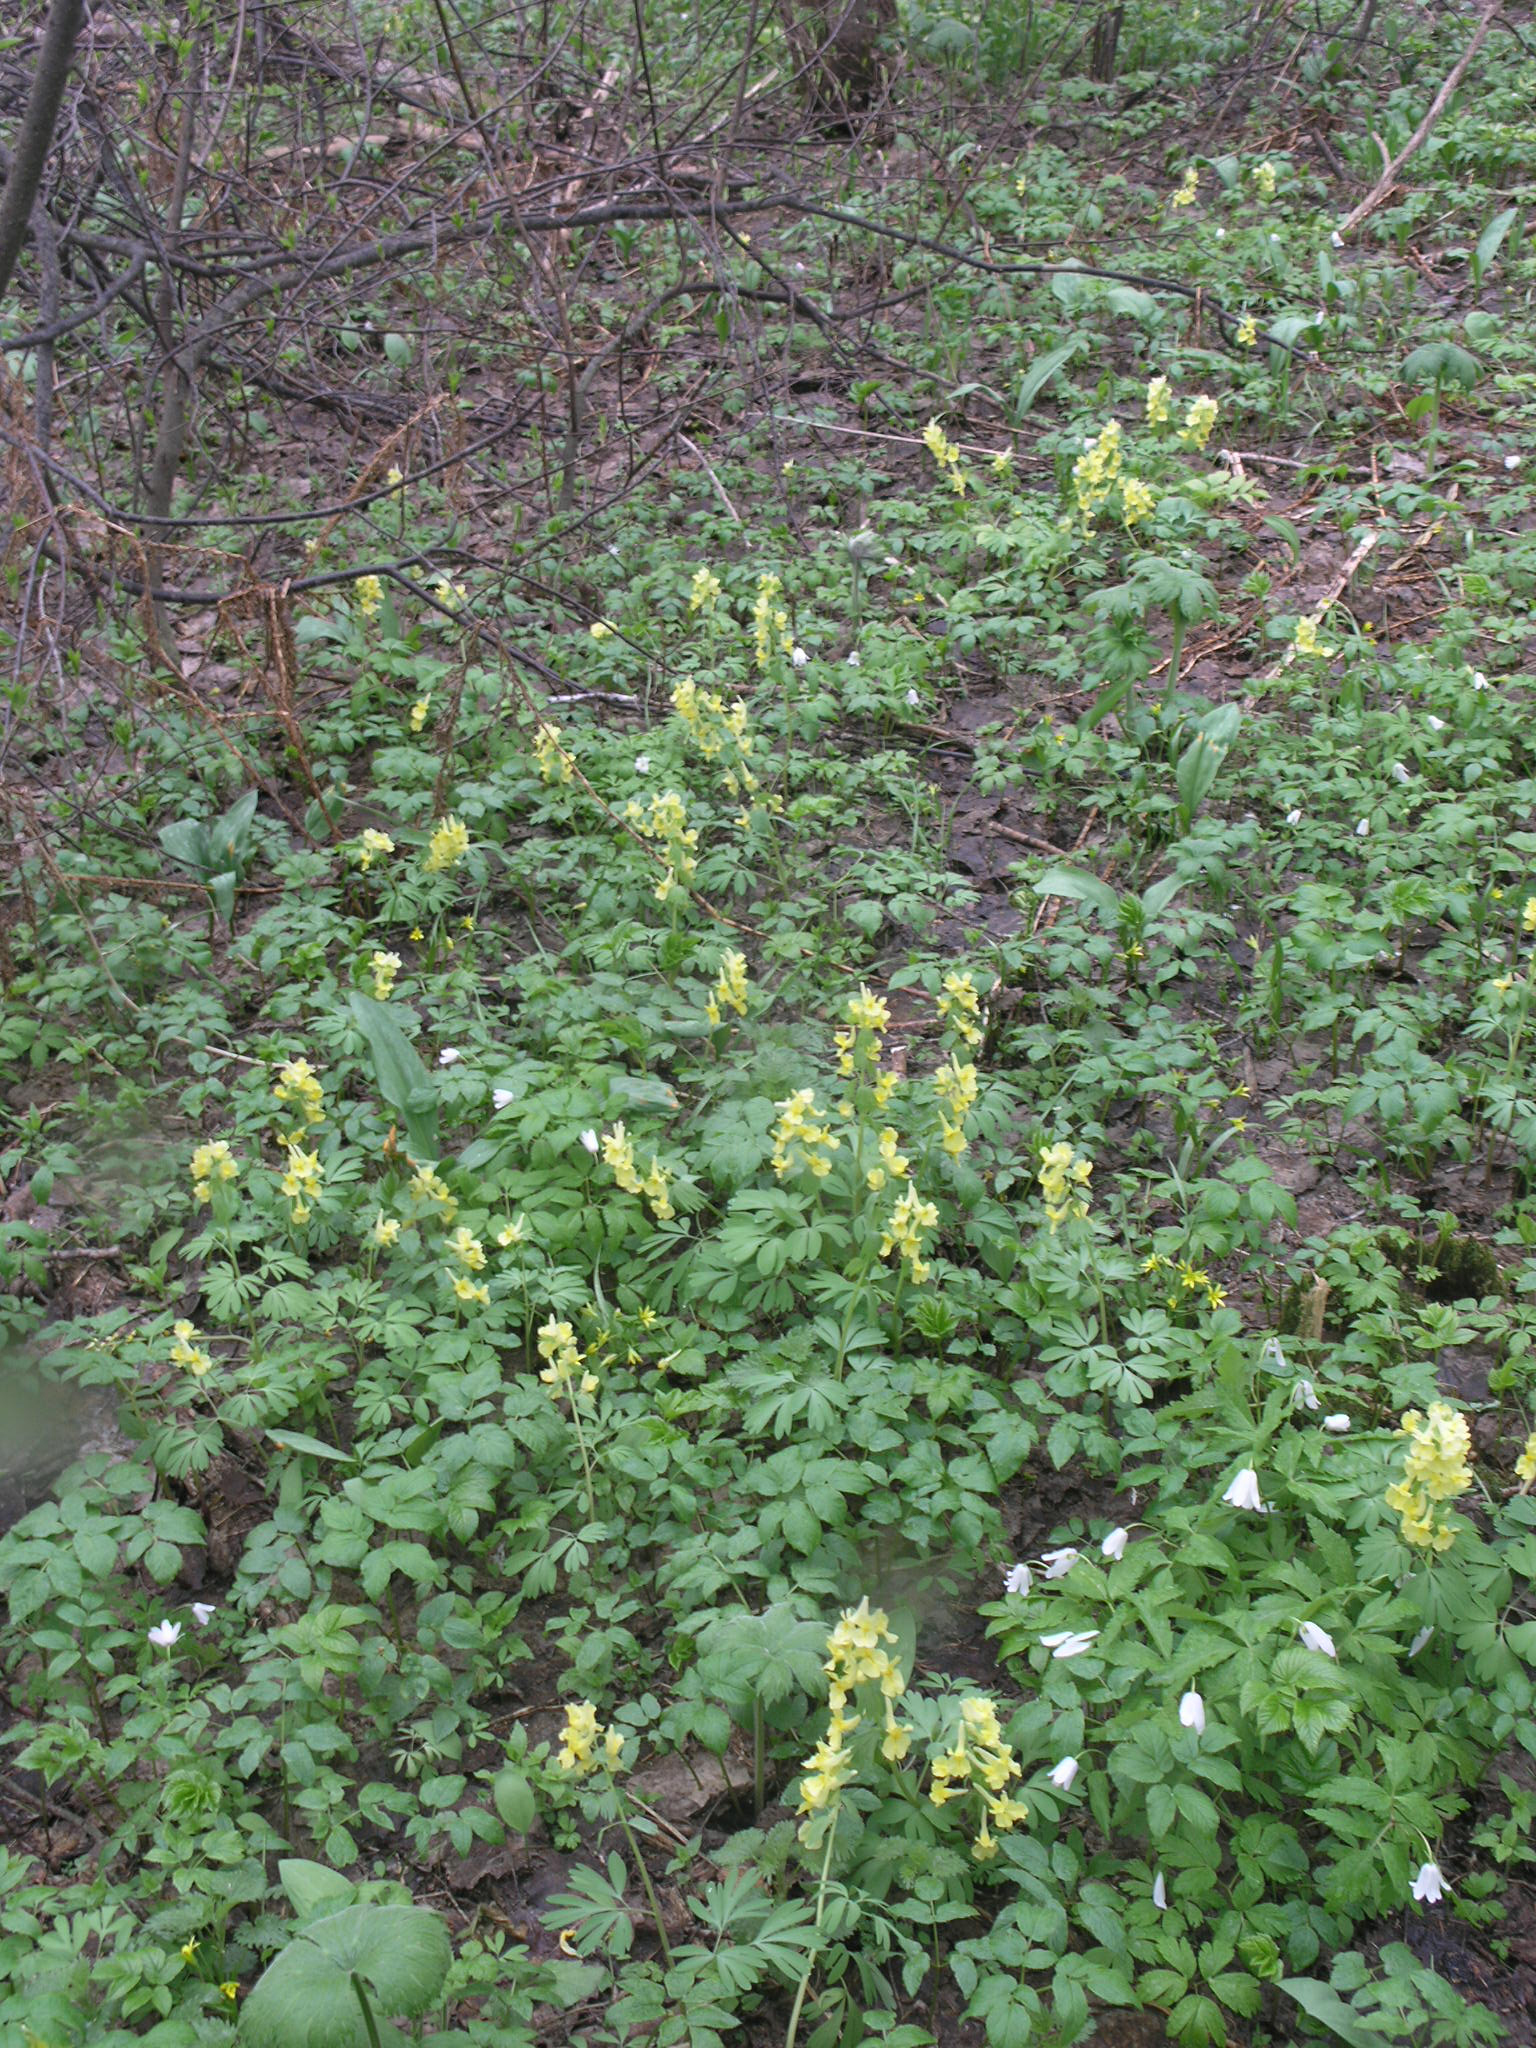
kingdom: Plantae
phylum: Tracheophyta
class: Magnoliopsida
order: Ranunculales
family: Papaveraceae
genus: Corydalis
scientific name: Corydalis bracteata
